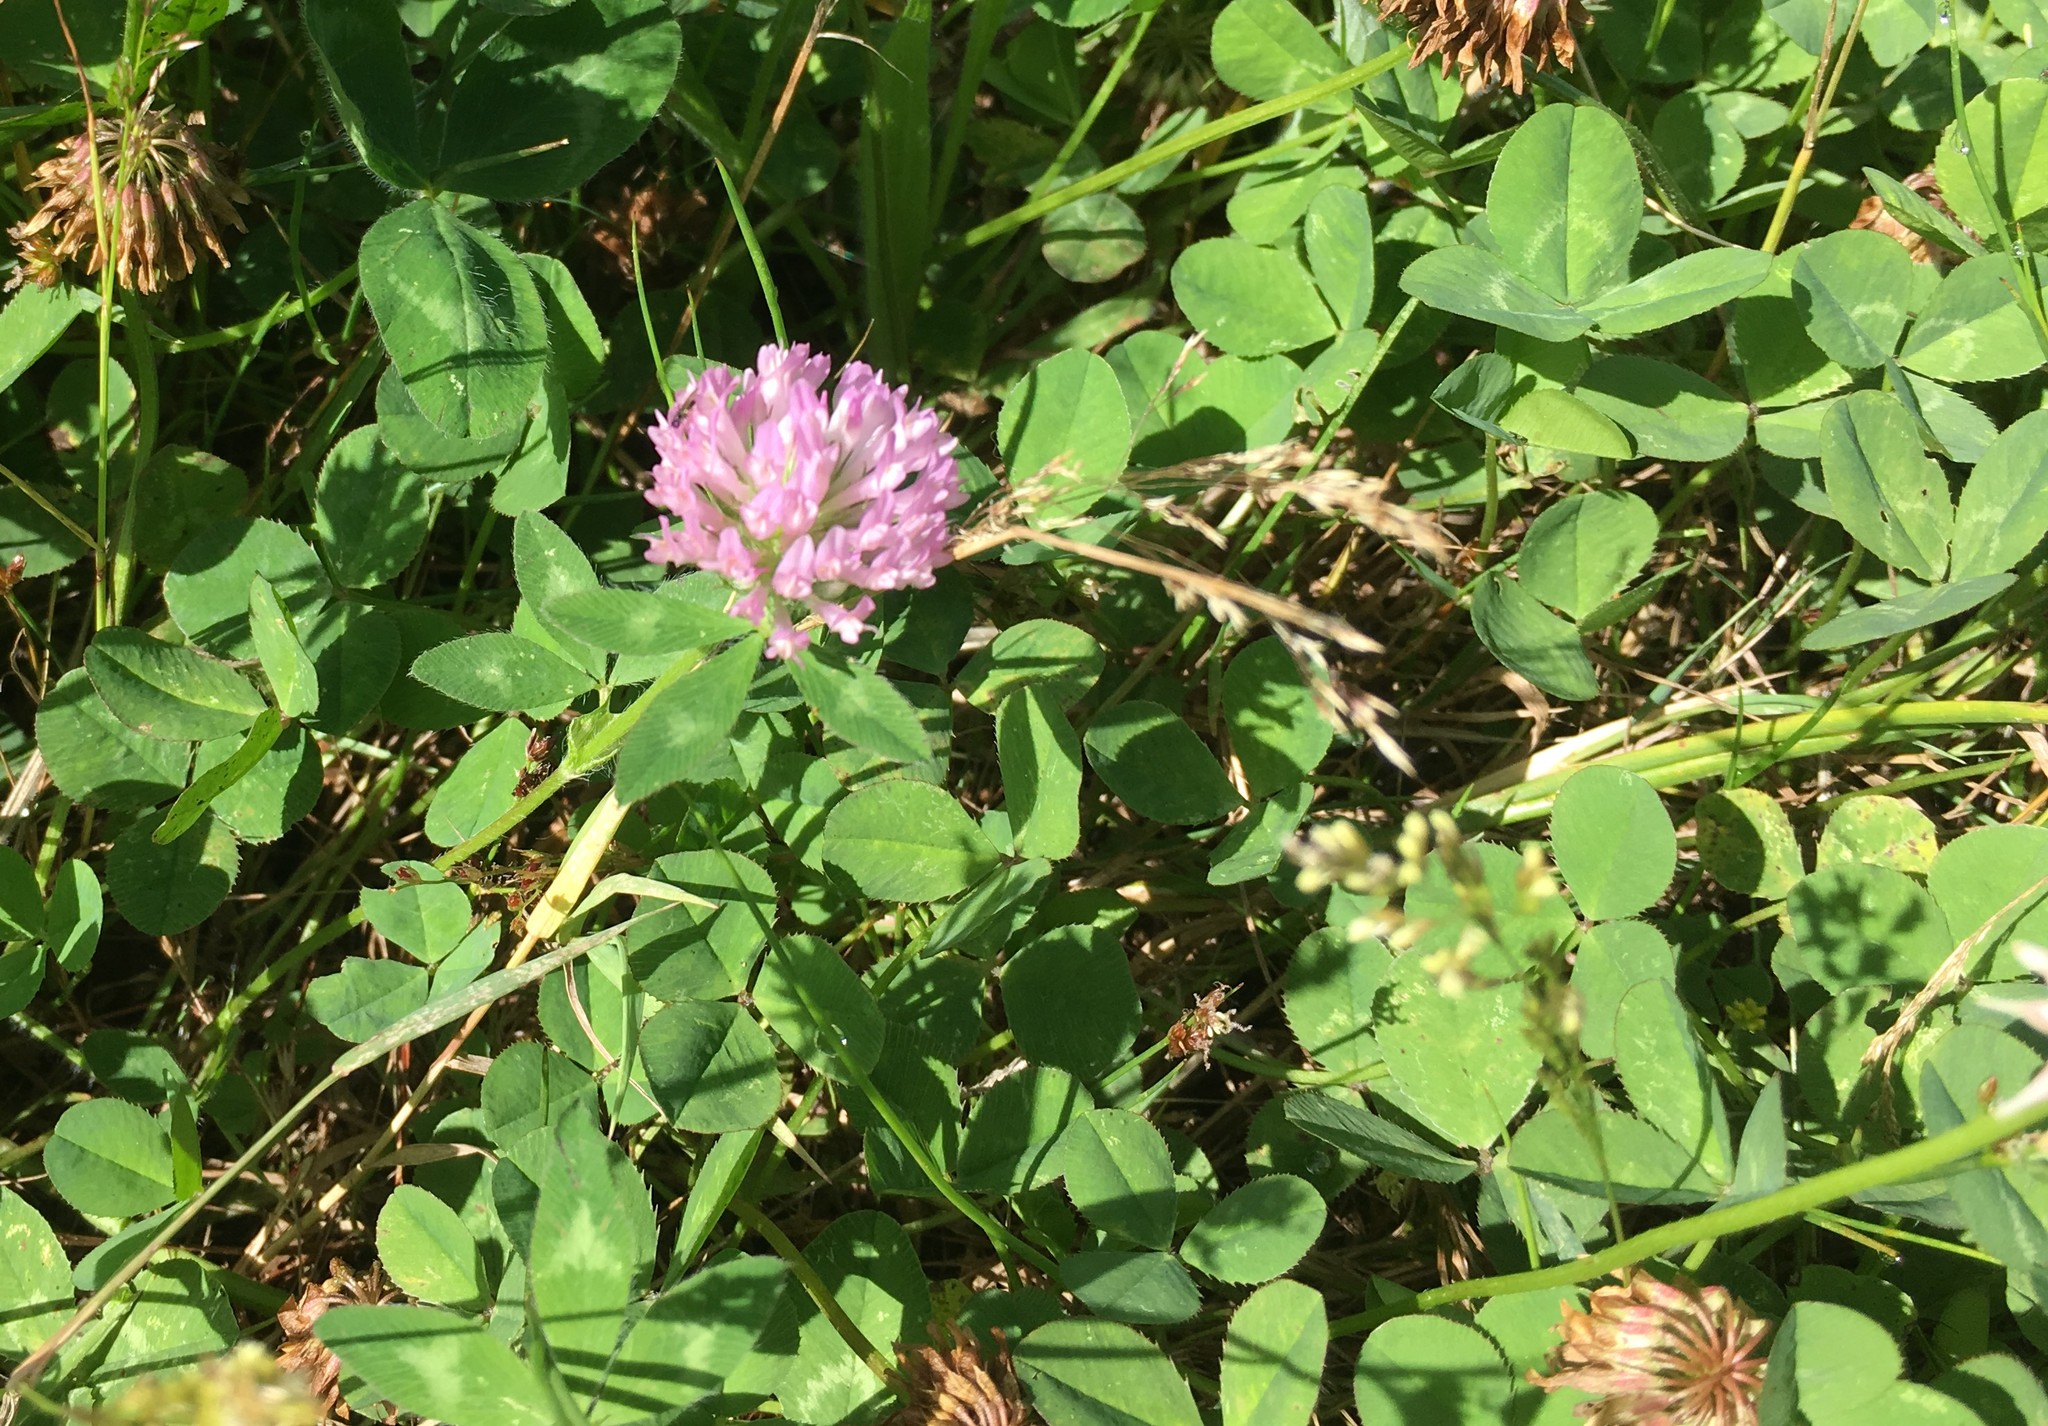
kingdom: Plantae
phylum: Tracheophyta
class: Magnoliopsida
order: Fabales
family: Fabaceae
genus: Trifolium
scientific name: Trifolium pratense
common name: Red clover
